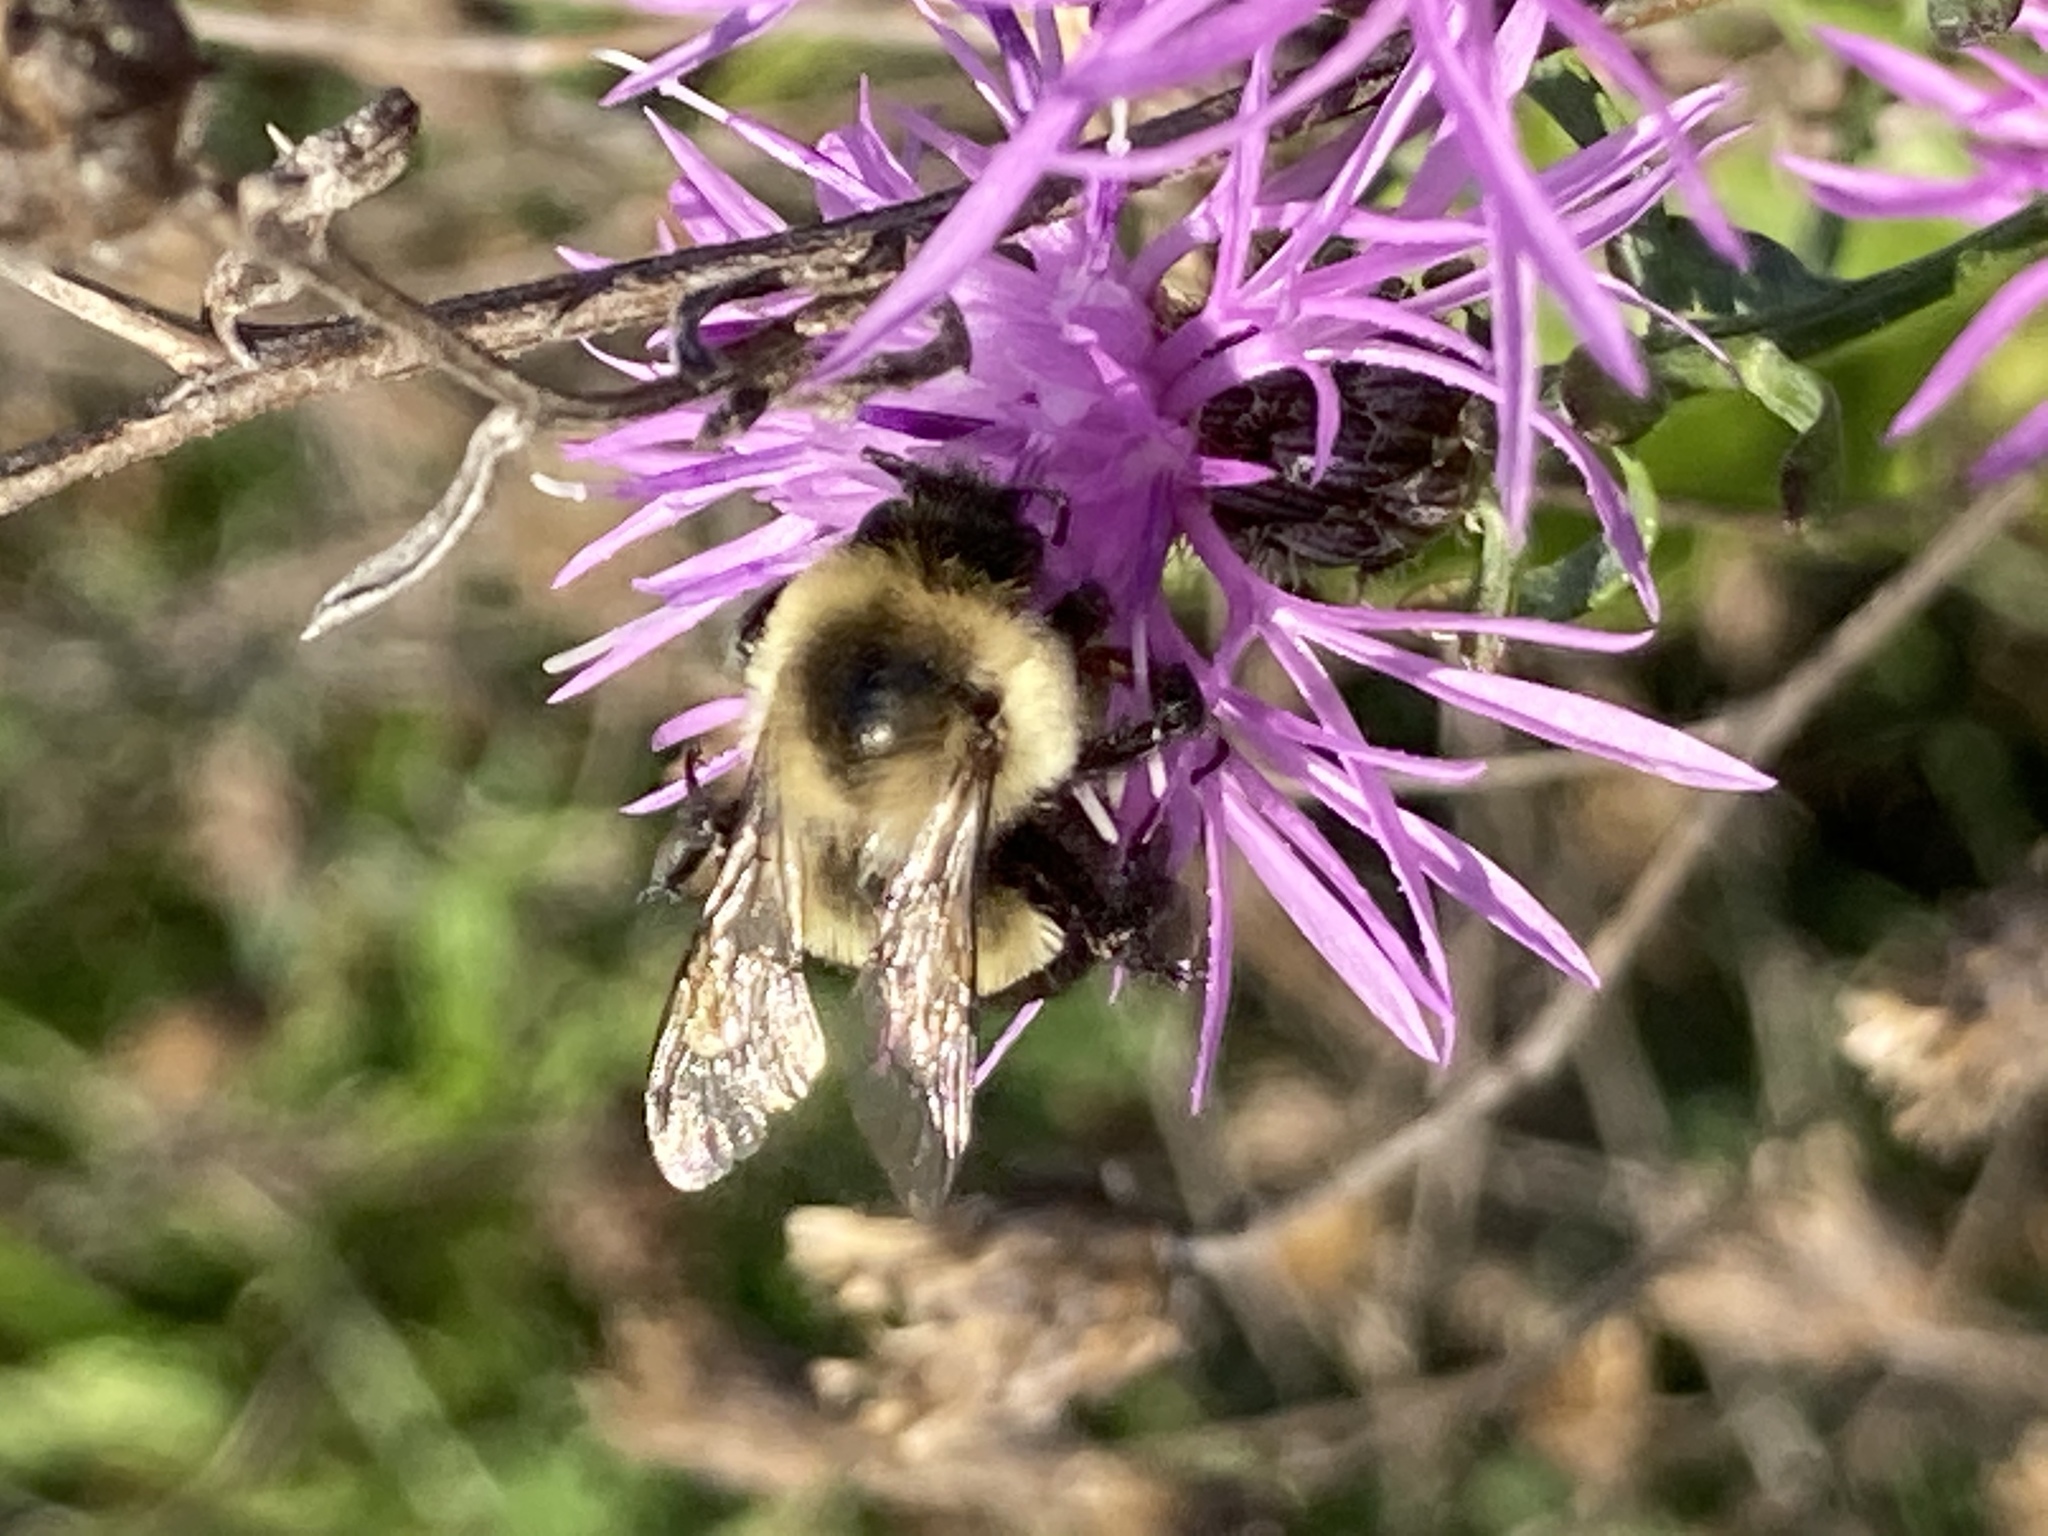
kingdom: Animalia
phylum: Arthropoda
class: Insecta
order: Hymenoptera
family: Apidae
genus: Bombus
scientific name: Bombus impatiens
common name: Common eastern bumble bee
